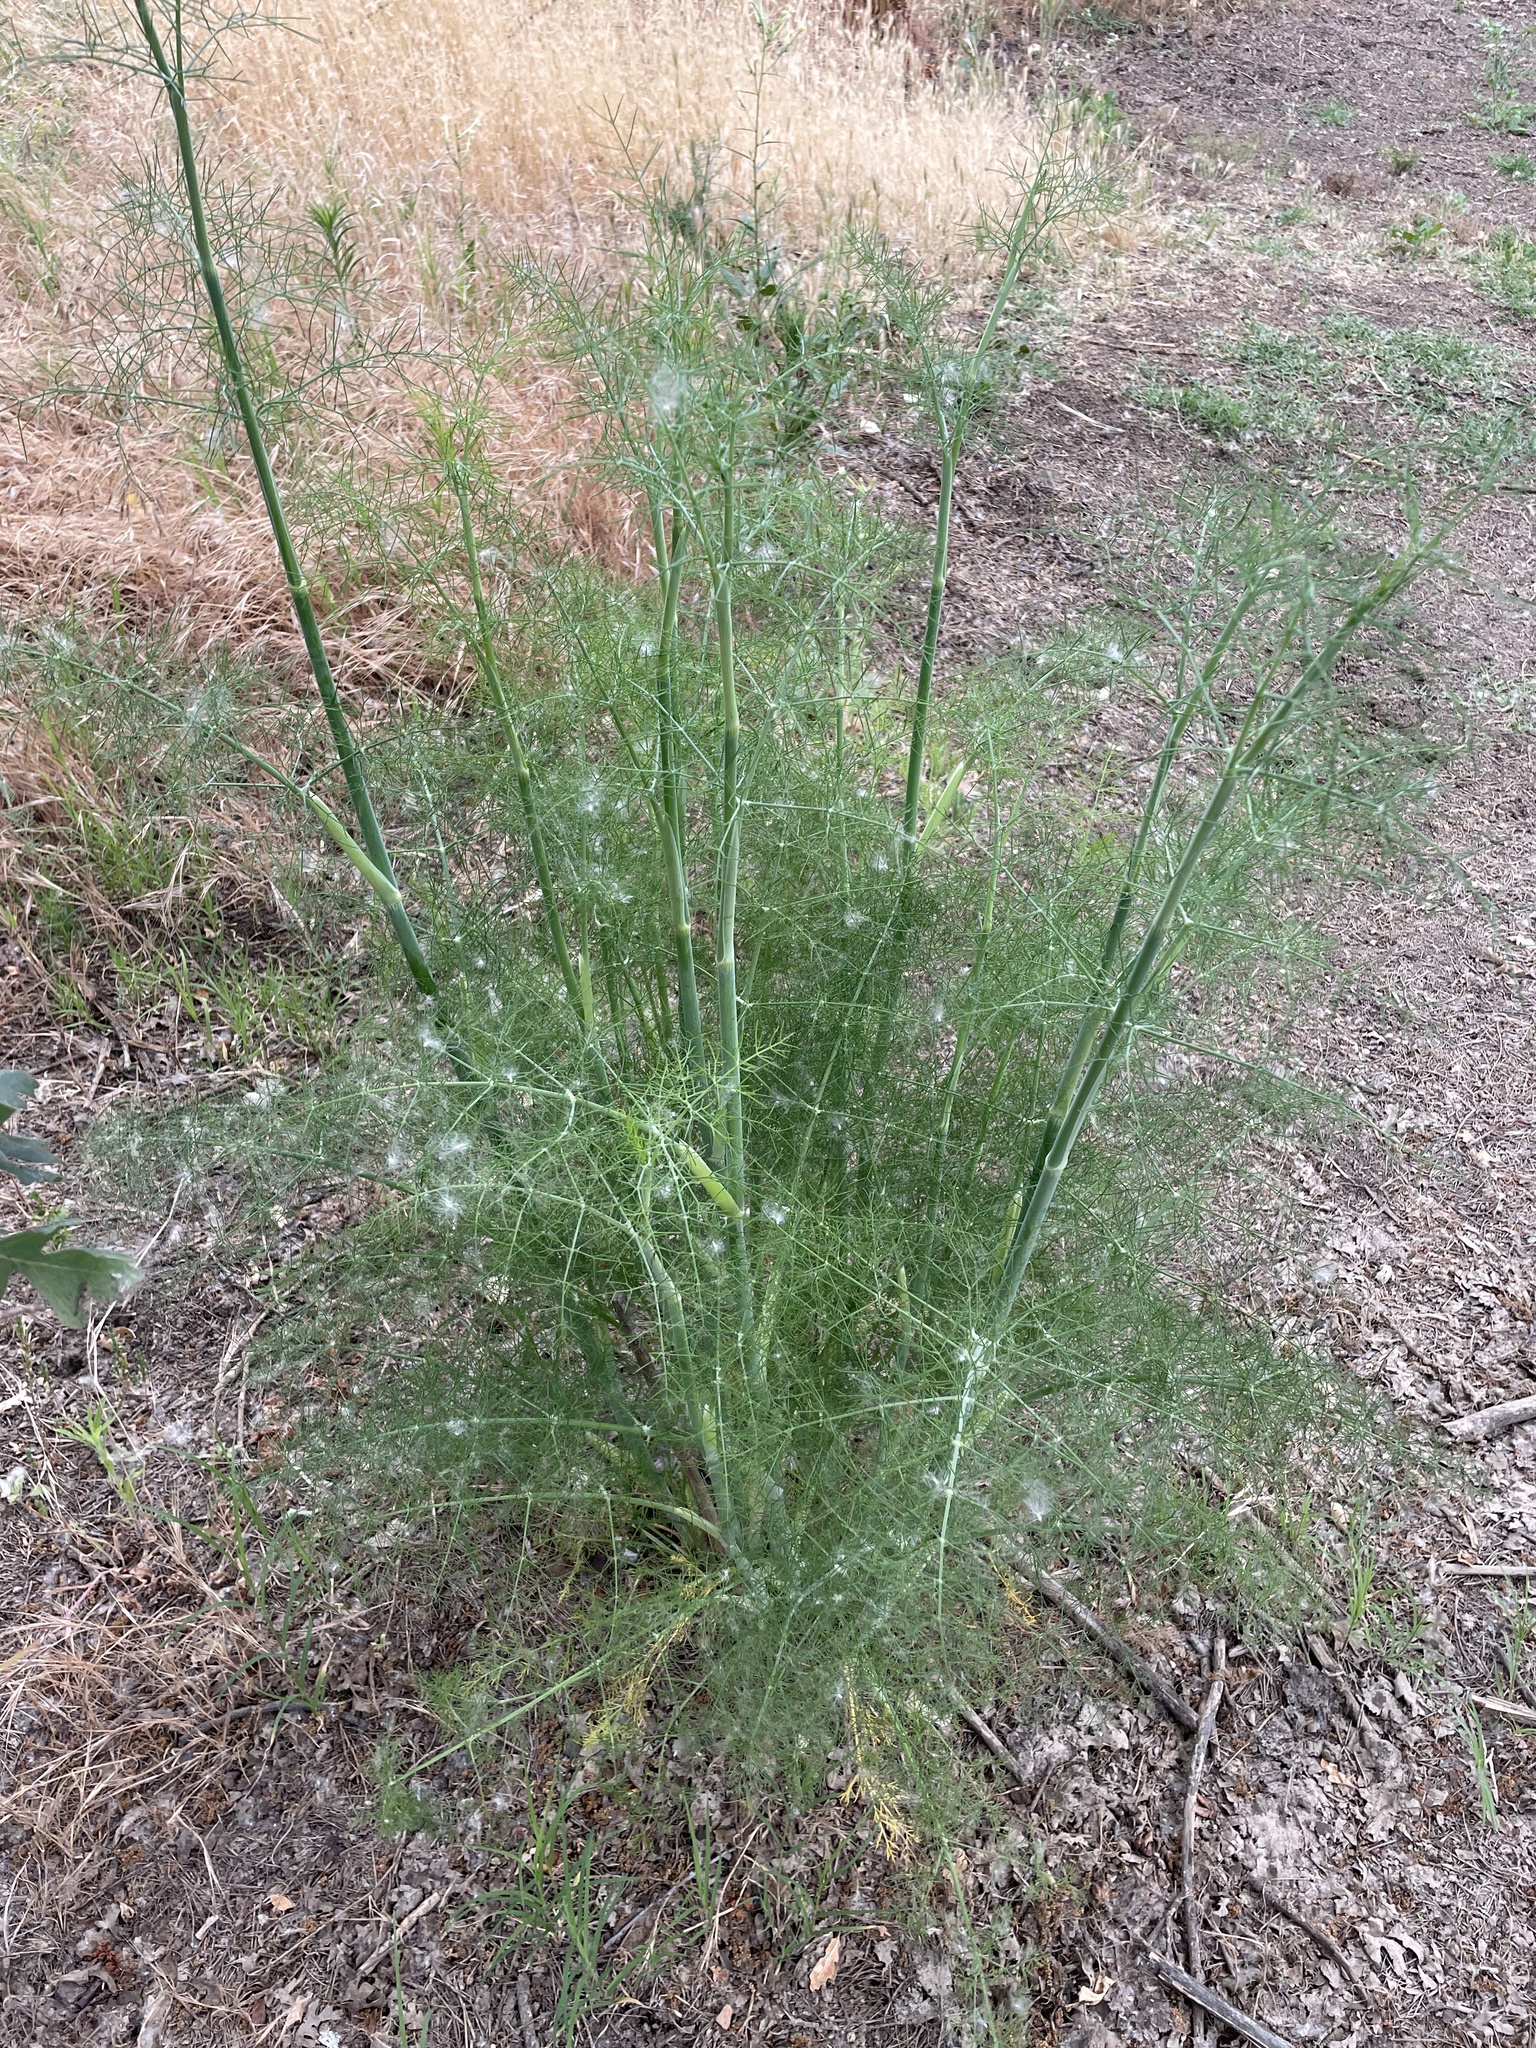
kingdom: Plantae
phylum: Tracheophyta
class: Magnoliopsida
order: Apiales
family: Apiaceae
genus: Foeniculum
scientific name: Foeniculum vulgare
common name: Fennel
